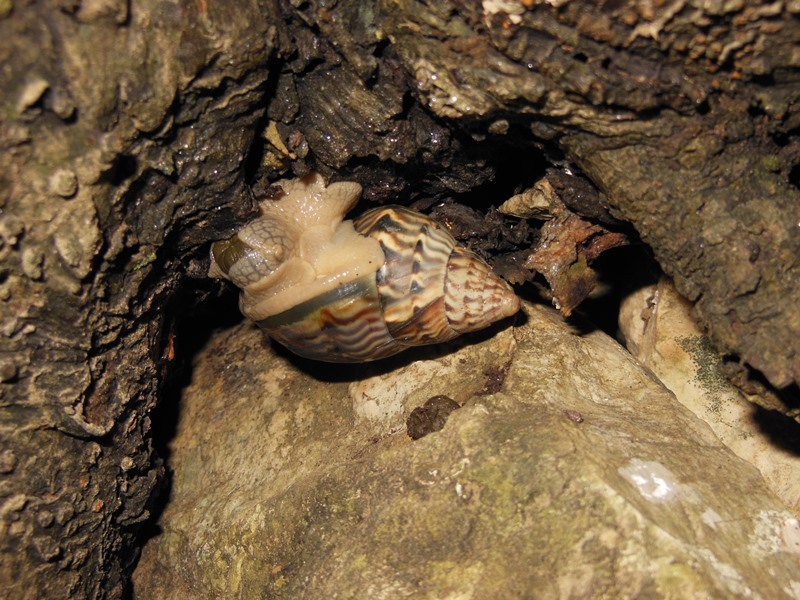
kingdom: Animalia
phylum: Mollusca
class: Gastropoda
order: Stylommatophora
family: Orthalicidae
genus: Orthalicus
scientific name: Orthalicus
